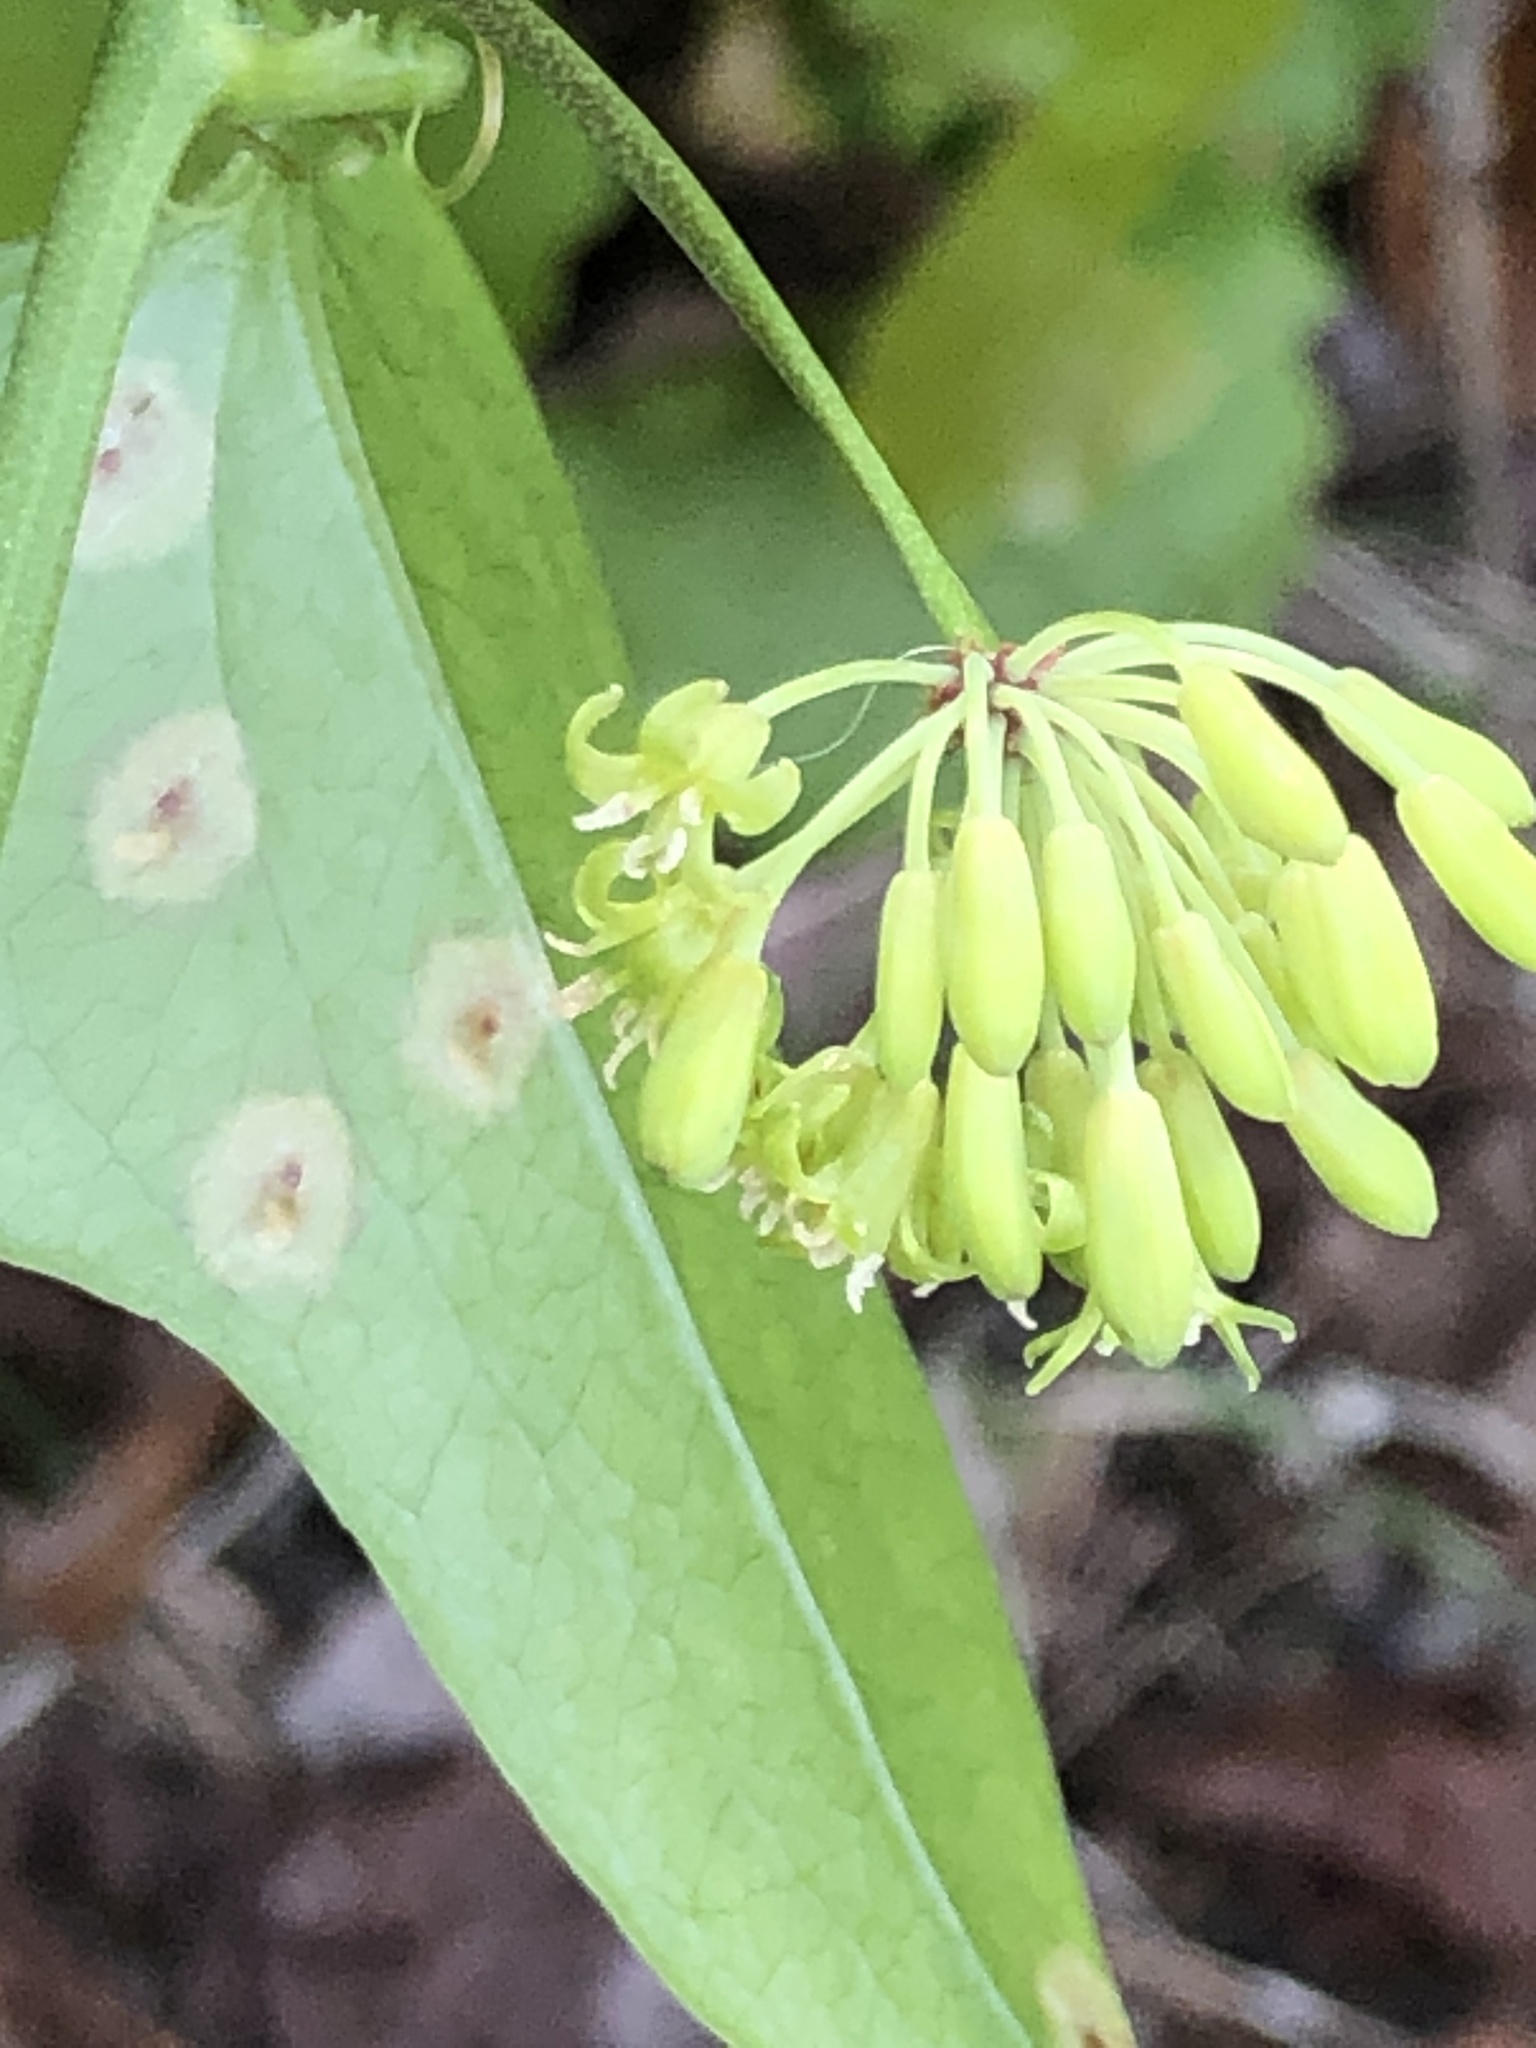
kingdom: Plantae
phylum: Tracheophyta
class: Liliopsida
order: Liliales
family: Smilacaceae
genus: Smilax
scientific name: Smilax bona-nox
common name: Catbrier
